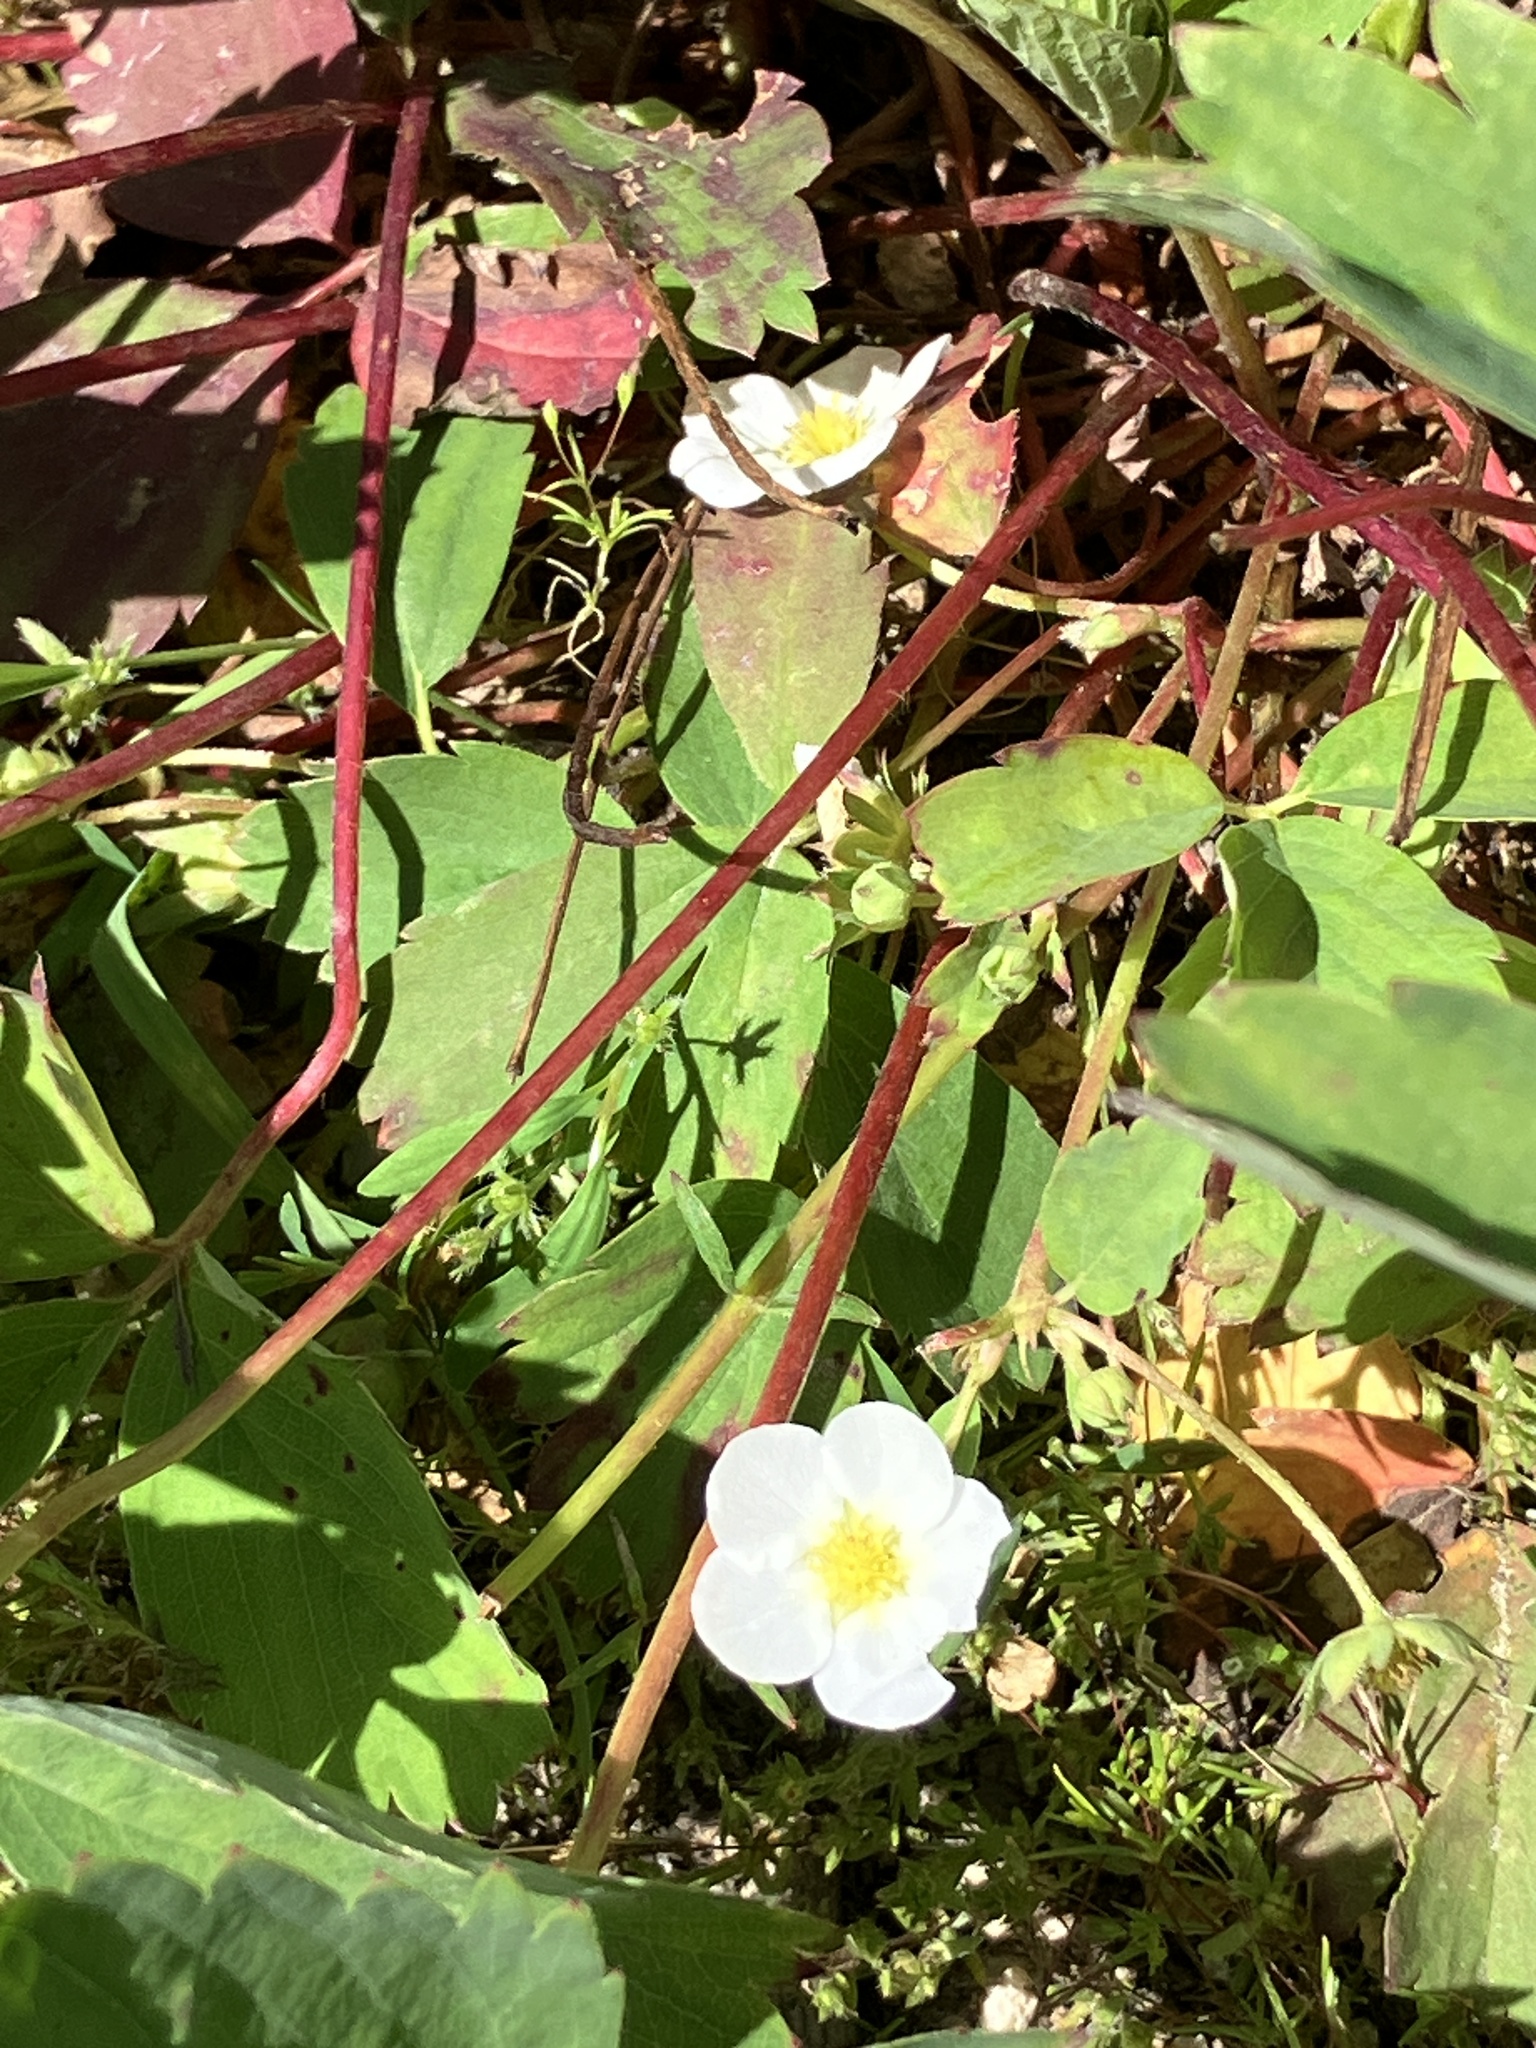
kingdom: Plantae
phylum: Tracheophyta
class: Magnoliopsida
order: Rosales
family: Rosaceae
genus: Fragaria
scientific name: Fragaria virginiana
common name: Thickleaved wild strawberry
